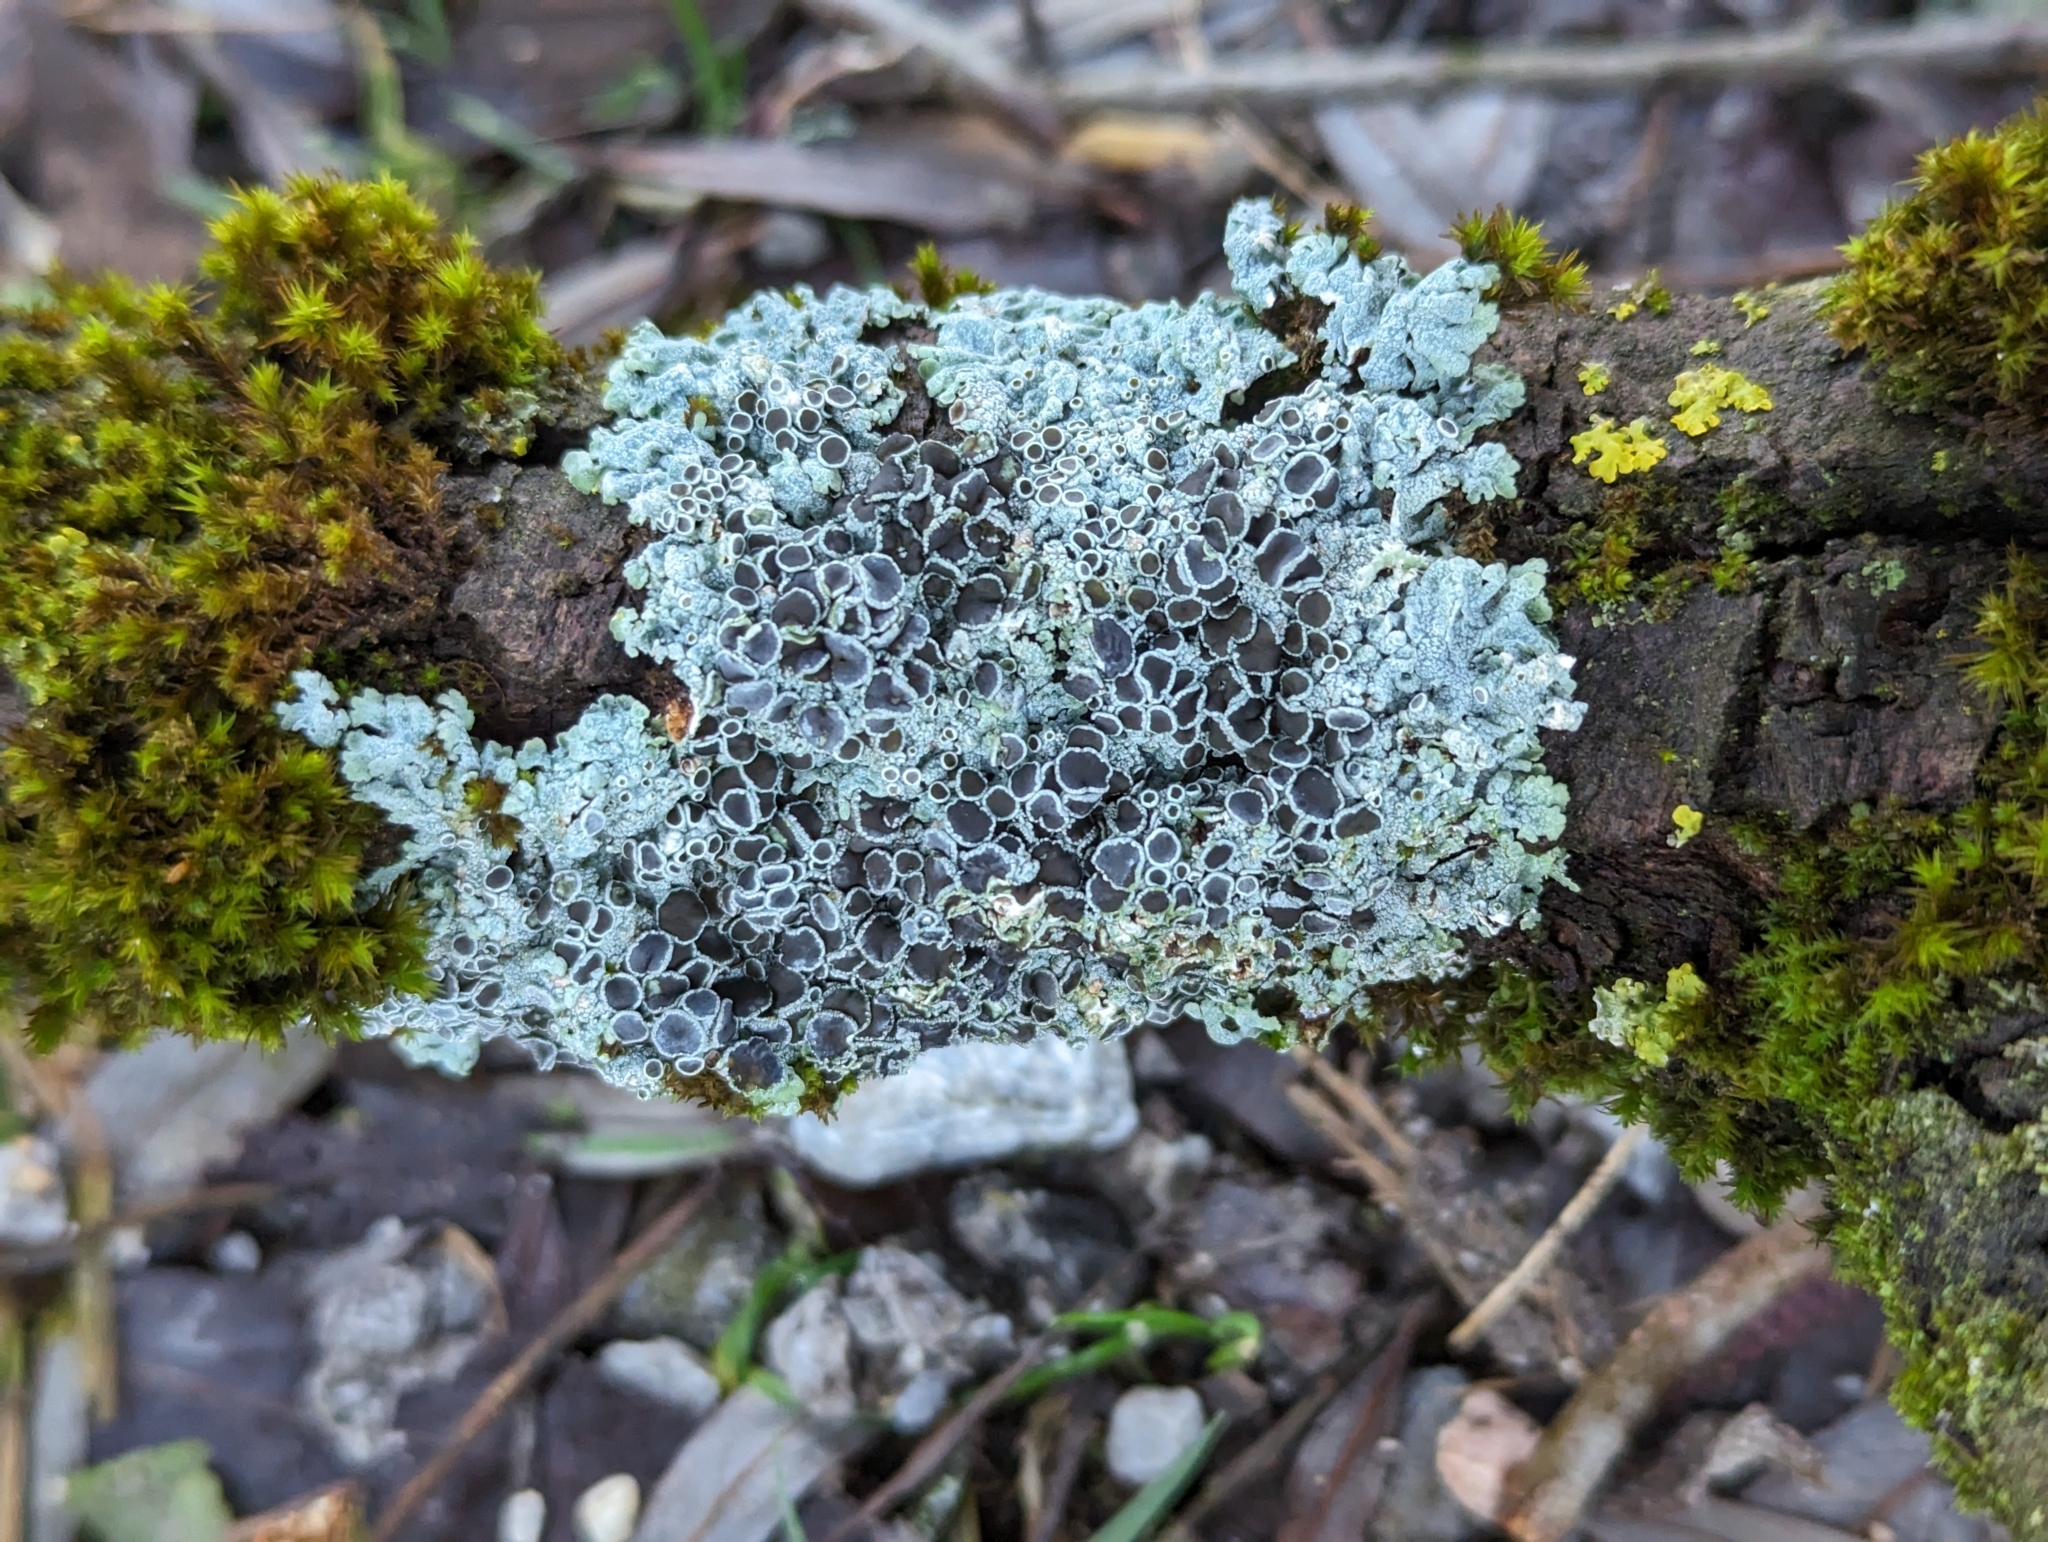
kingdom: Fungi
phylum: Ascomycota
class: Lecanoromycetes
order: Caliciales
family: Physciaceae
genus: Physcia
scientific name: Physcia aipolia
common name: Hoary rosette lichen
